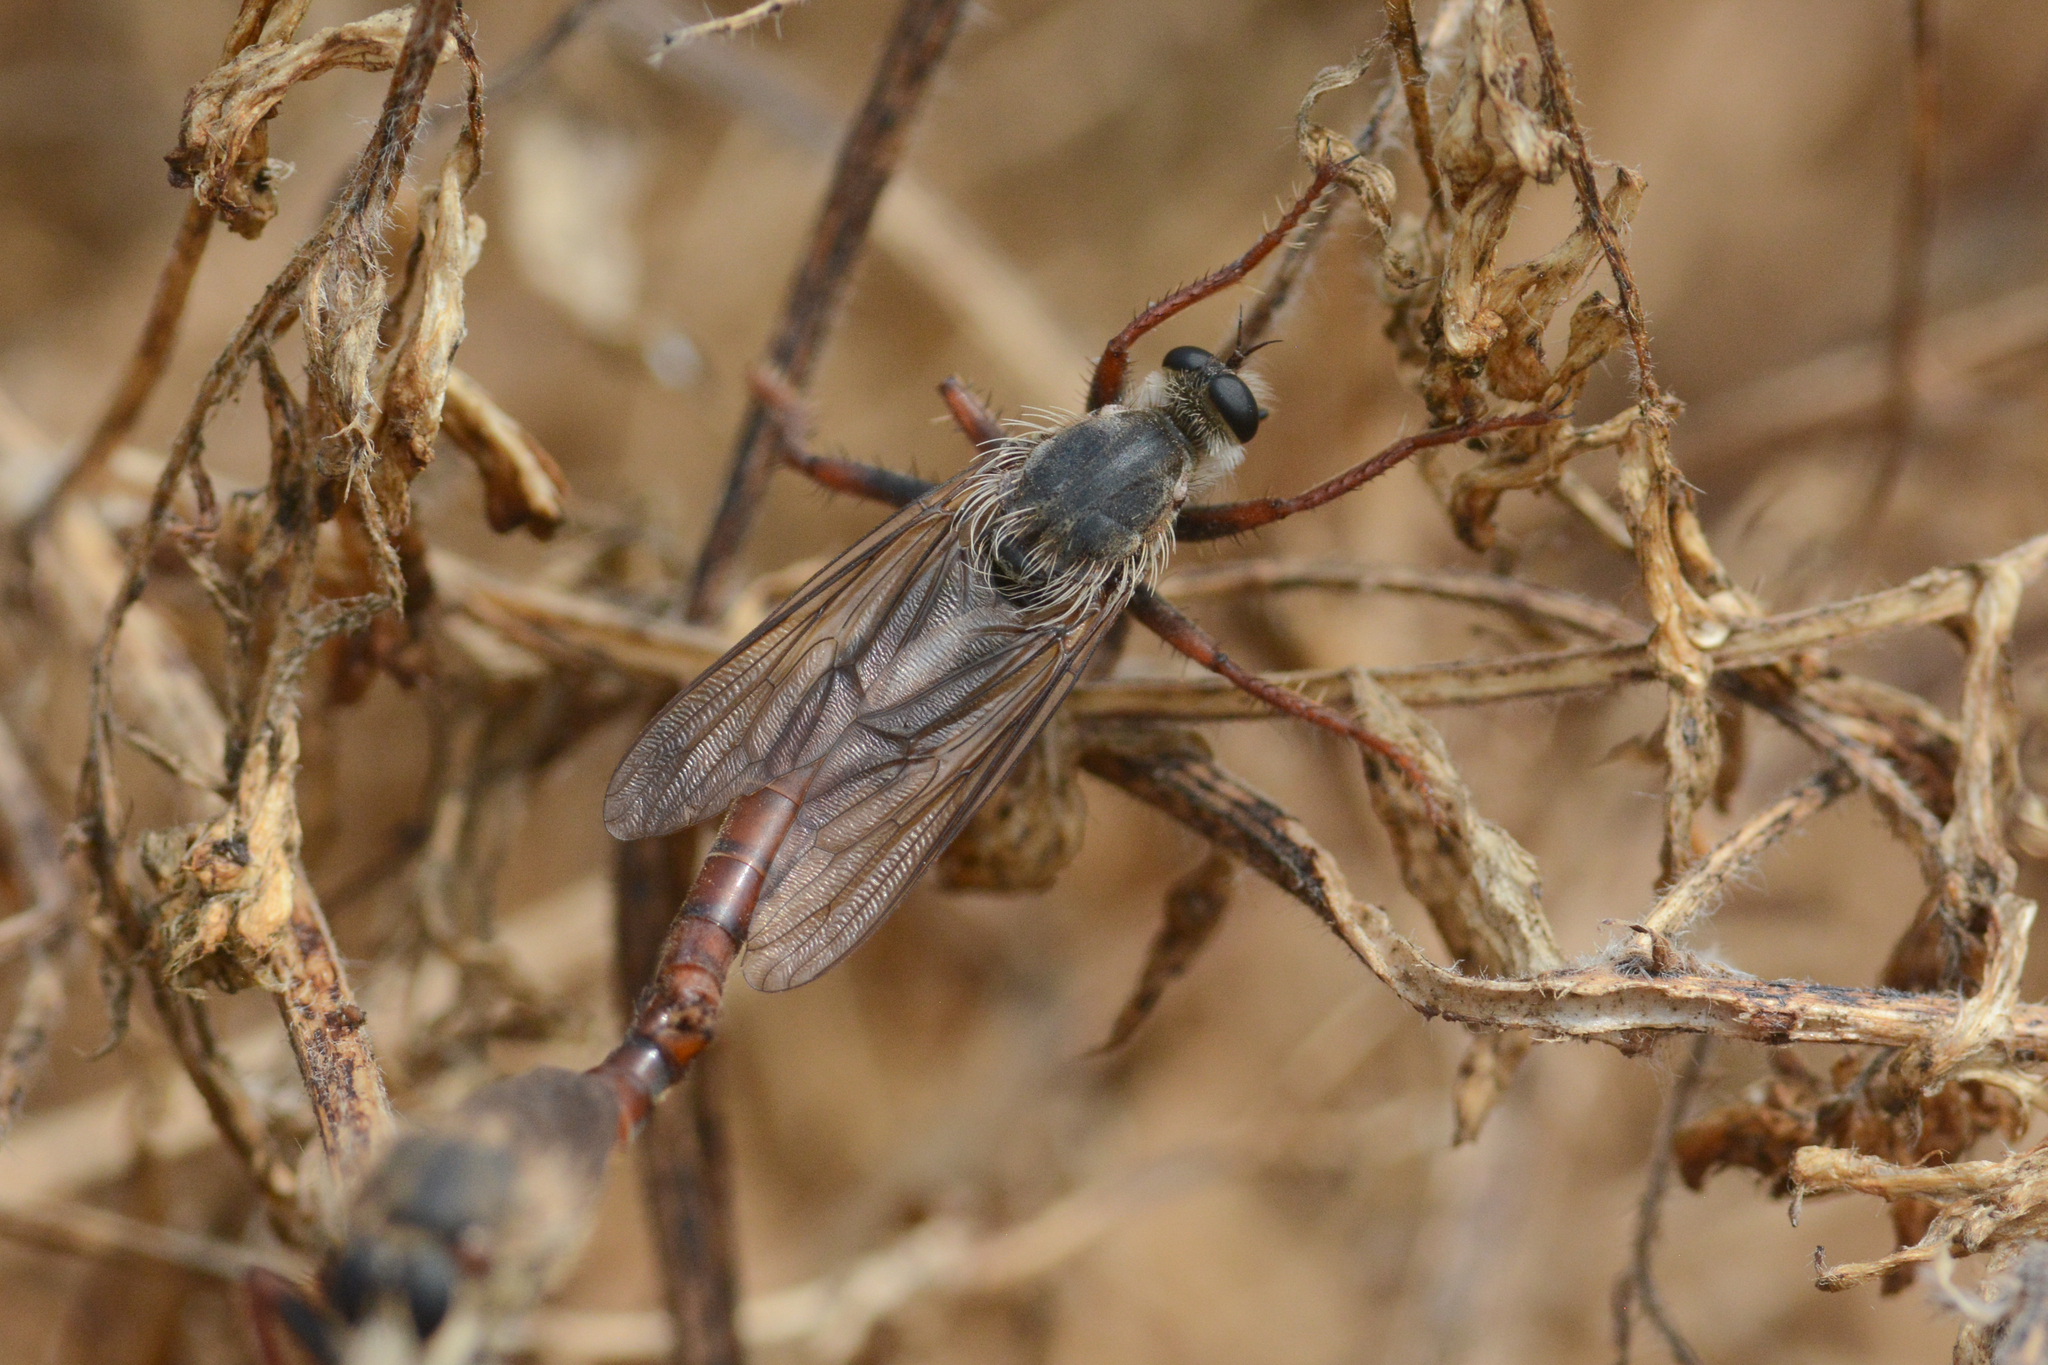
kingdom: Animalia
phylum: Arthropoda
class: Insecta
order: Diptera
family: Asilidae
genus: Stenopogon
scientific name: Stenopogon inquinatus
